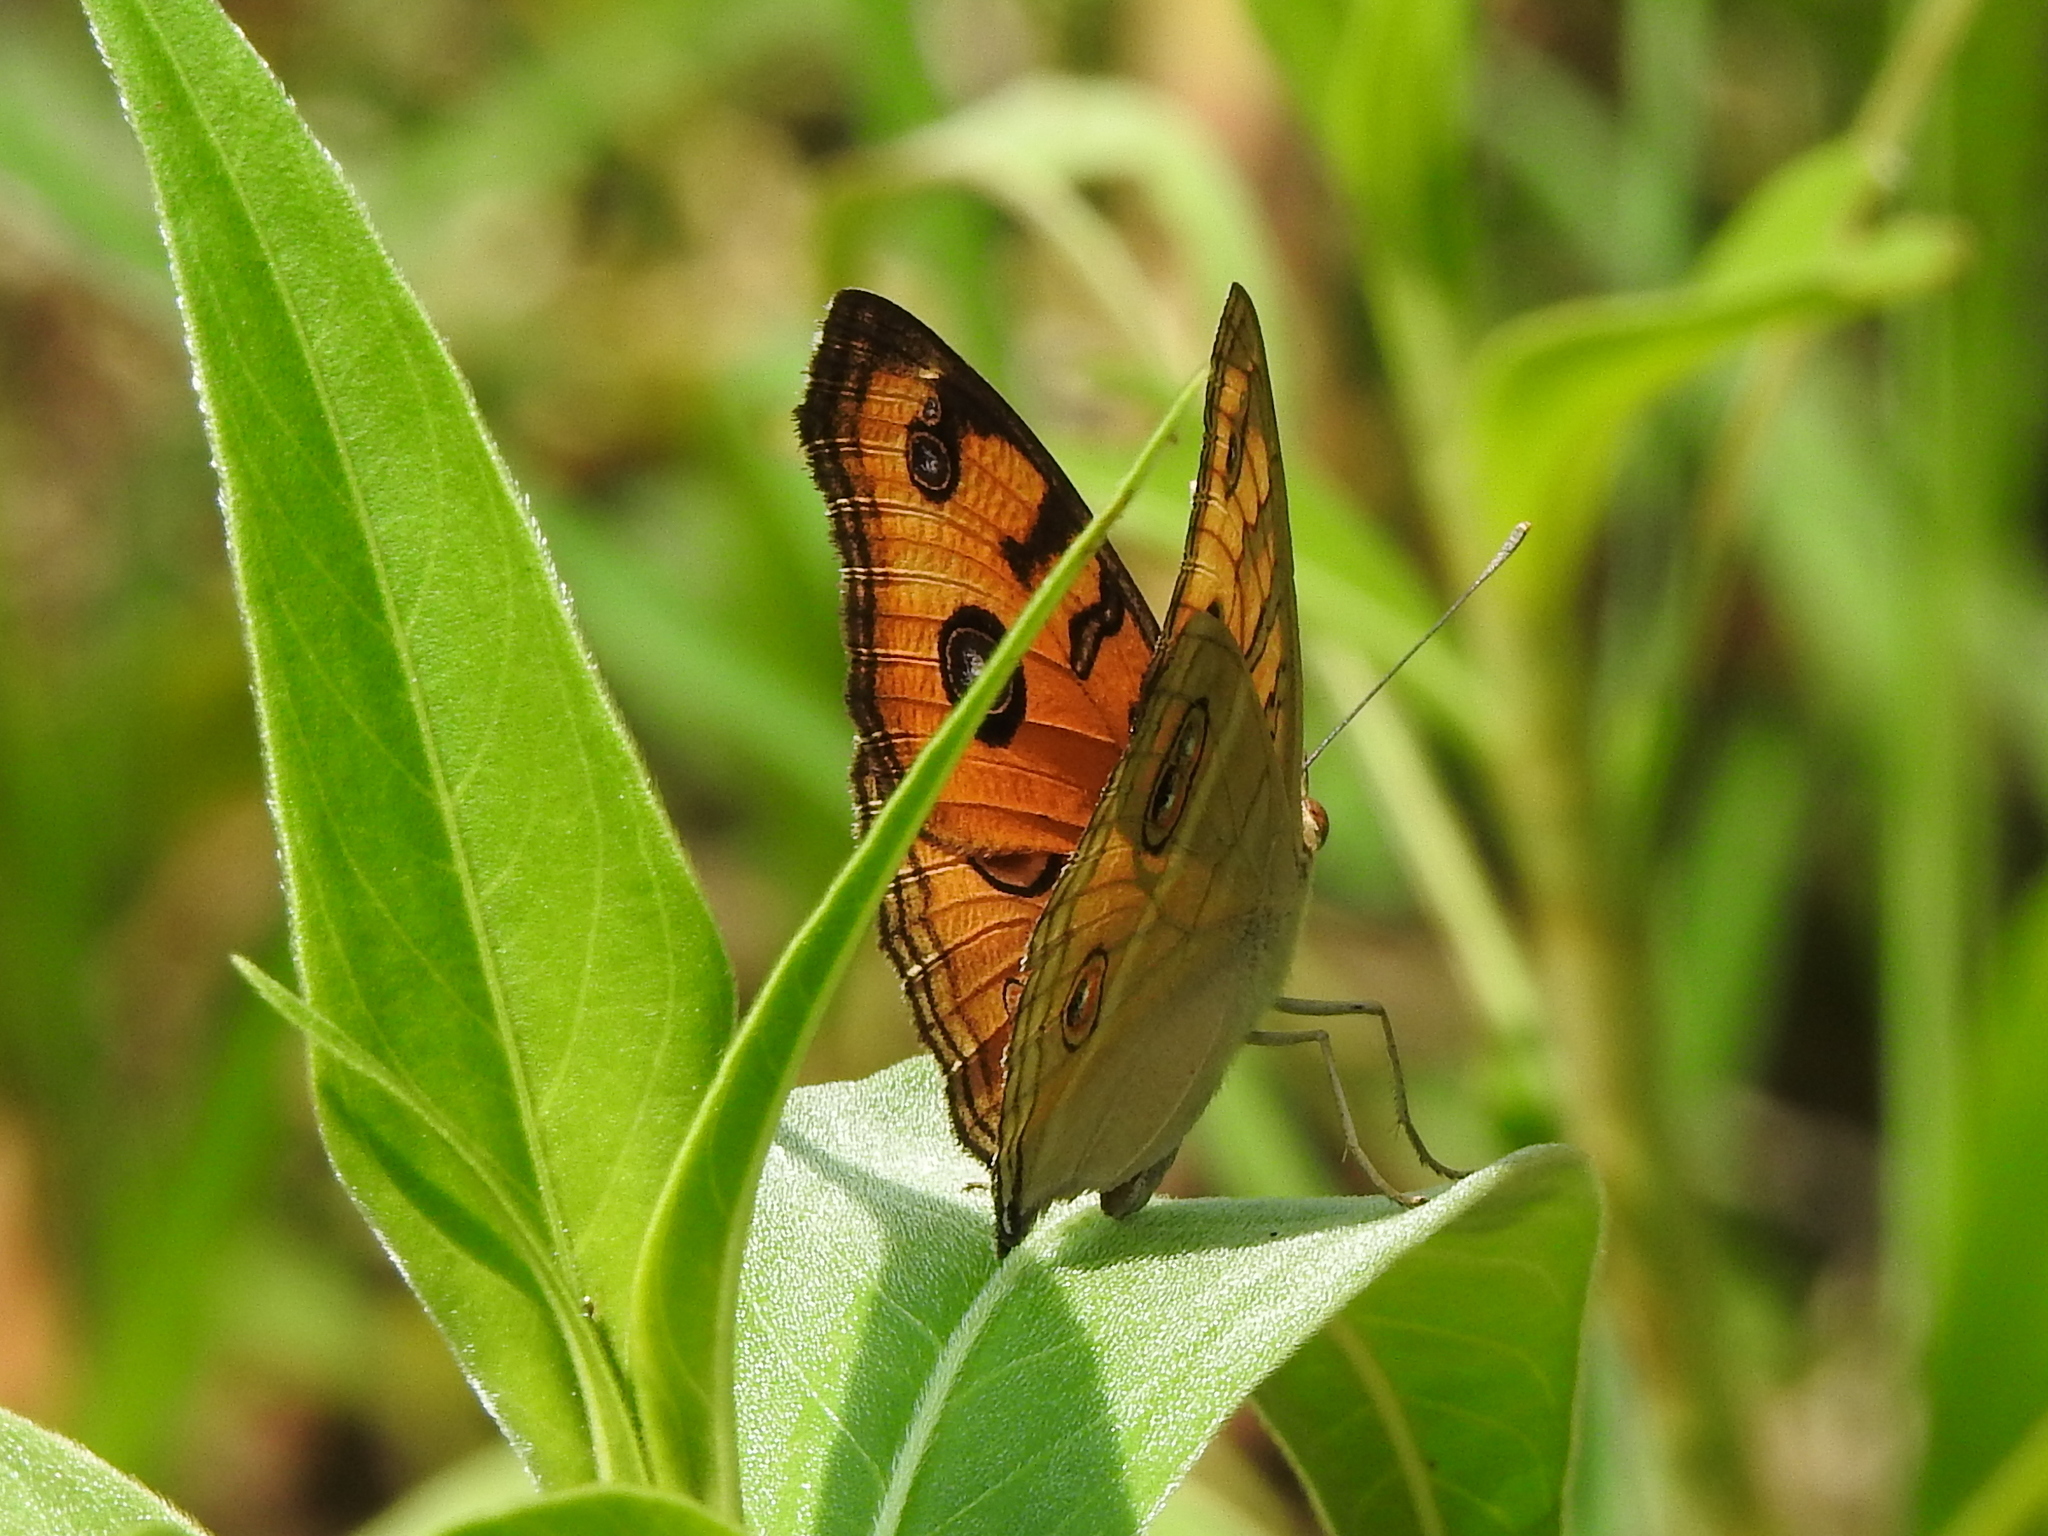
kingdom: Animalia
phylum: Arthropoda
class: Insecta
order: Lepidoptera
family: Nymphalidae
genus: Junonia
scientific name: Junonia almana
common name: Peacock pansy
